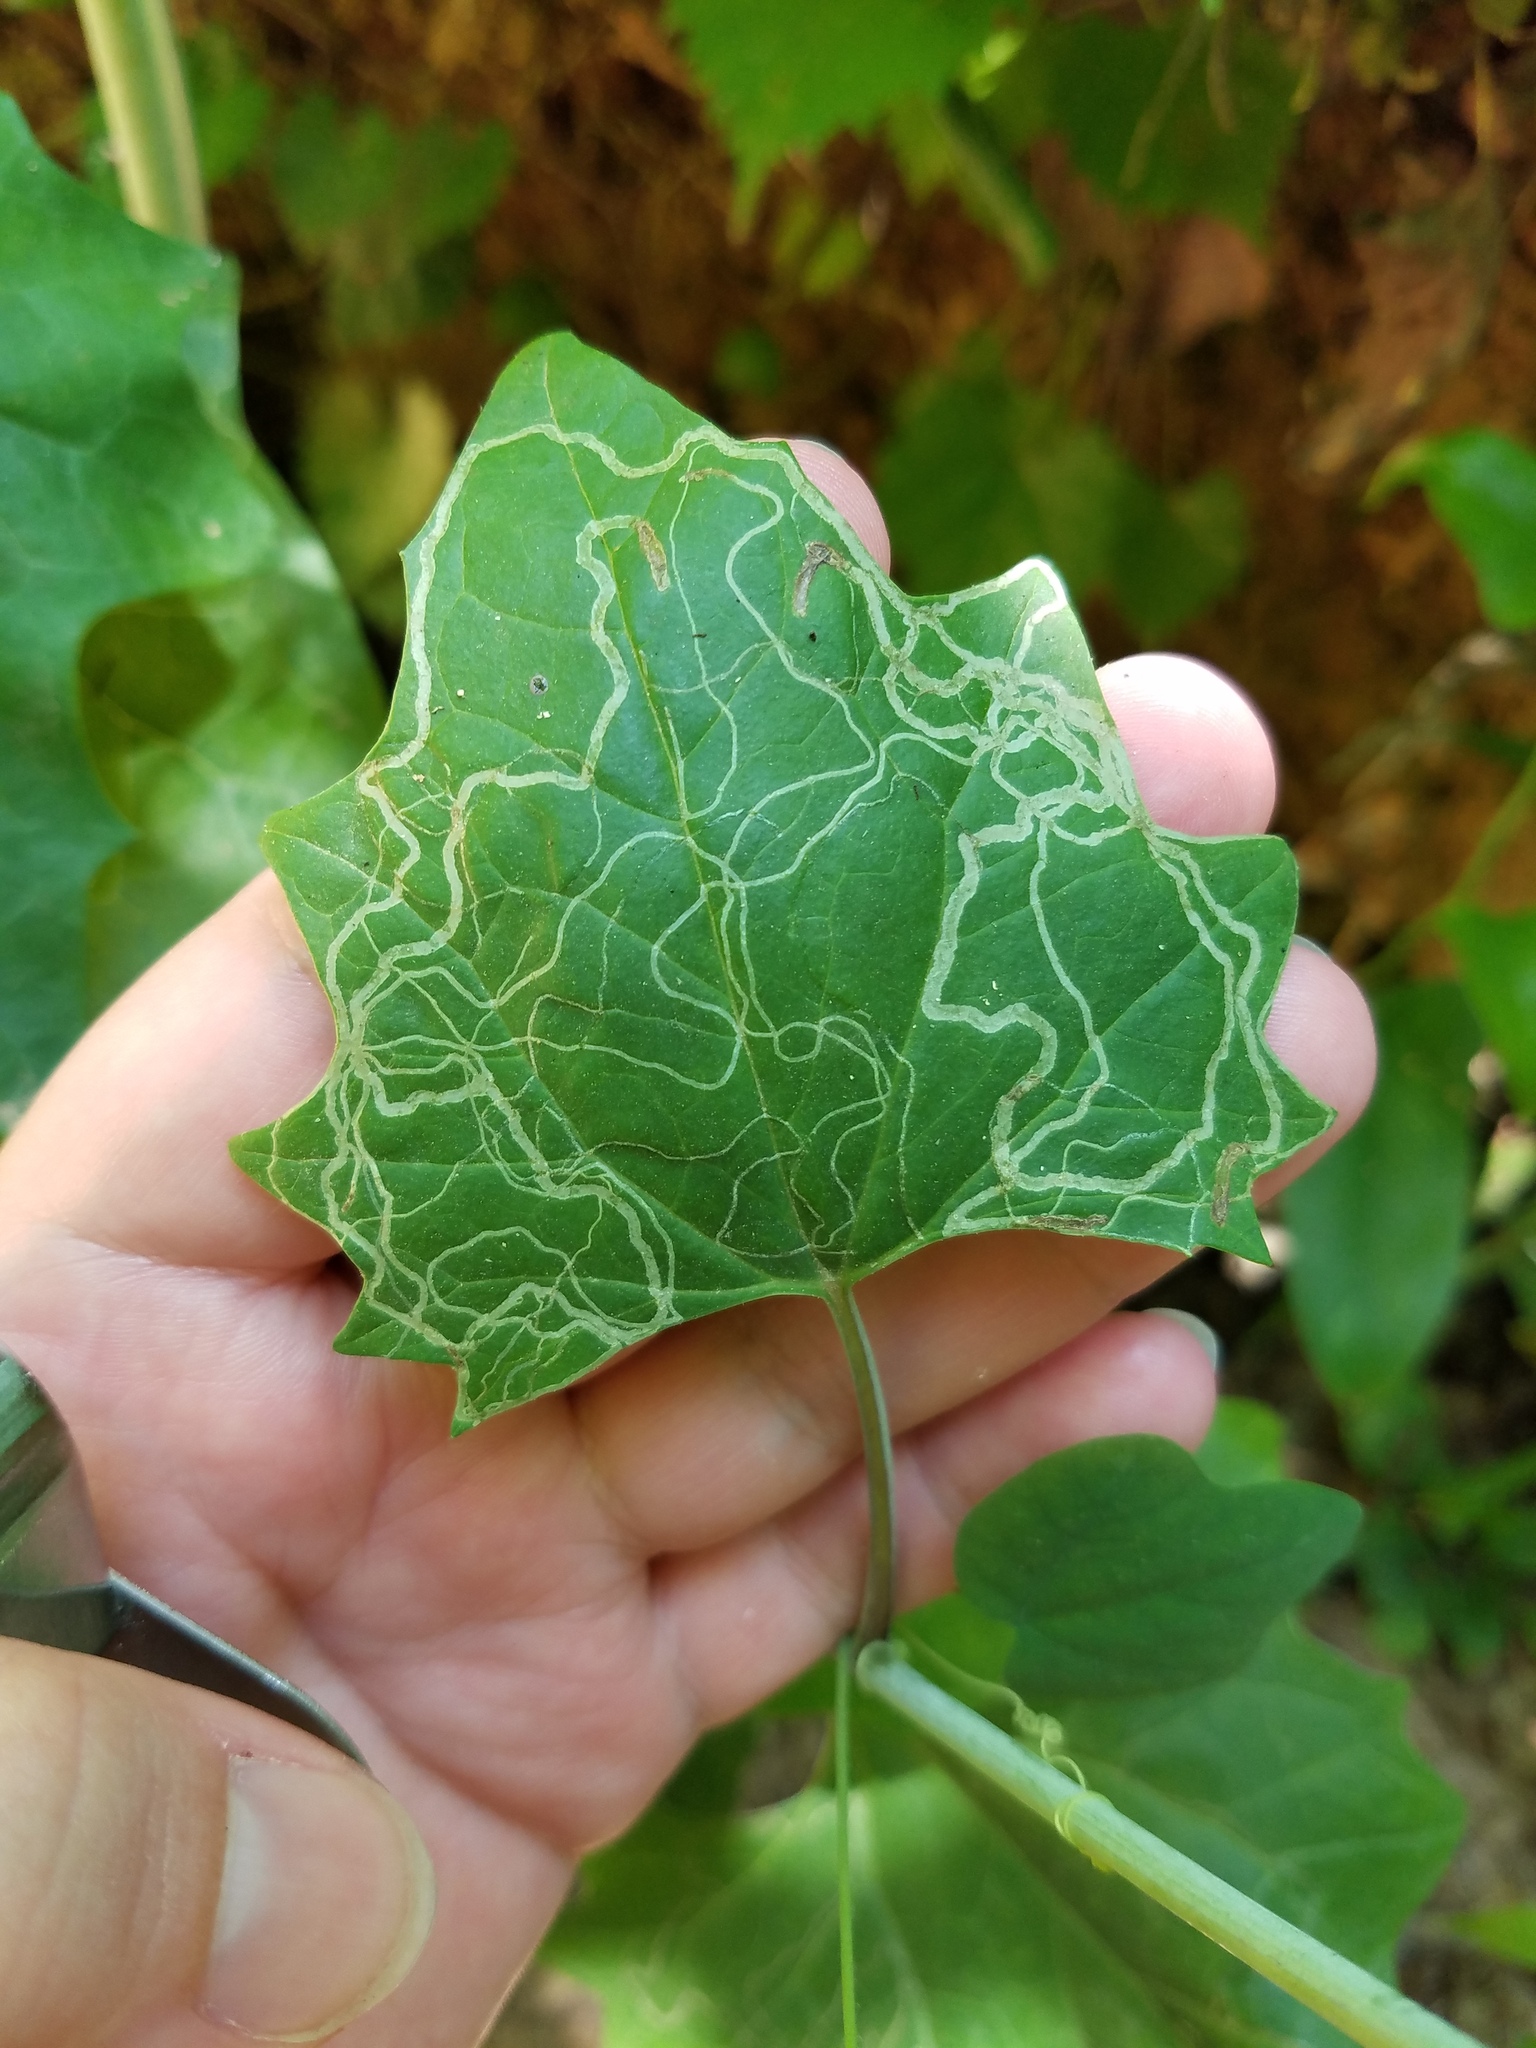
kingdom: Animalia
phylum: Arthropoda
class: Insecta
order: Lepidoptera
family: Gracillariidae
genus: Phyllocnistis
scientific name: Phyllocnistis insignis
